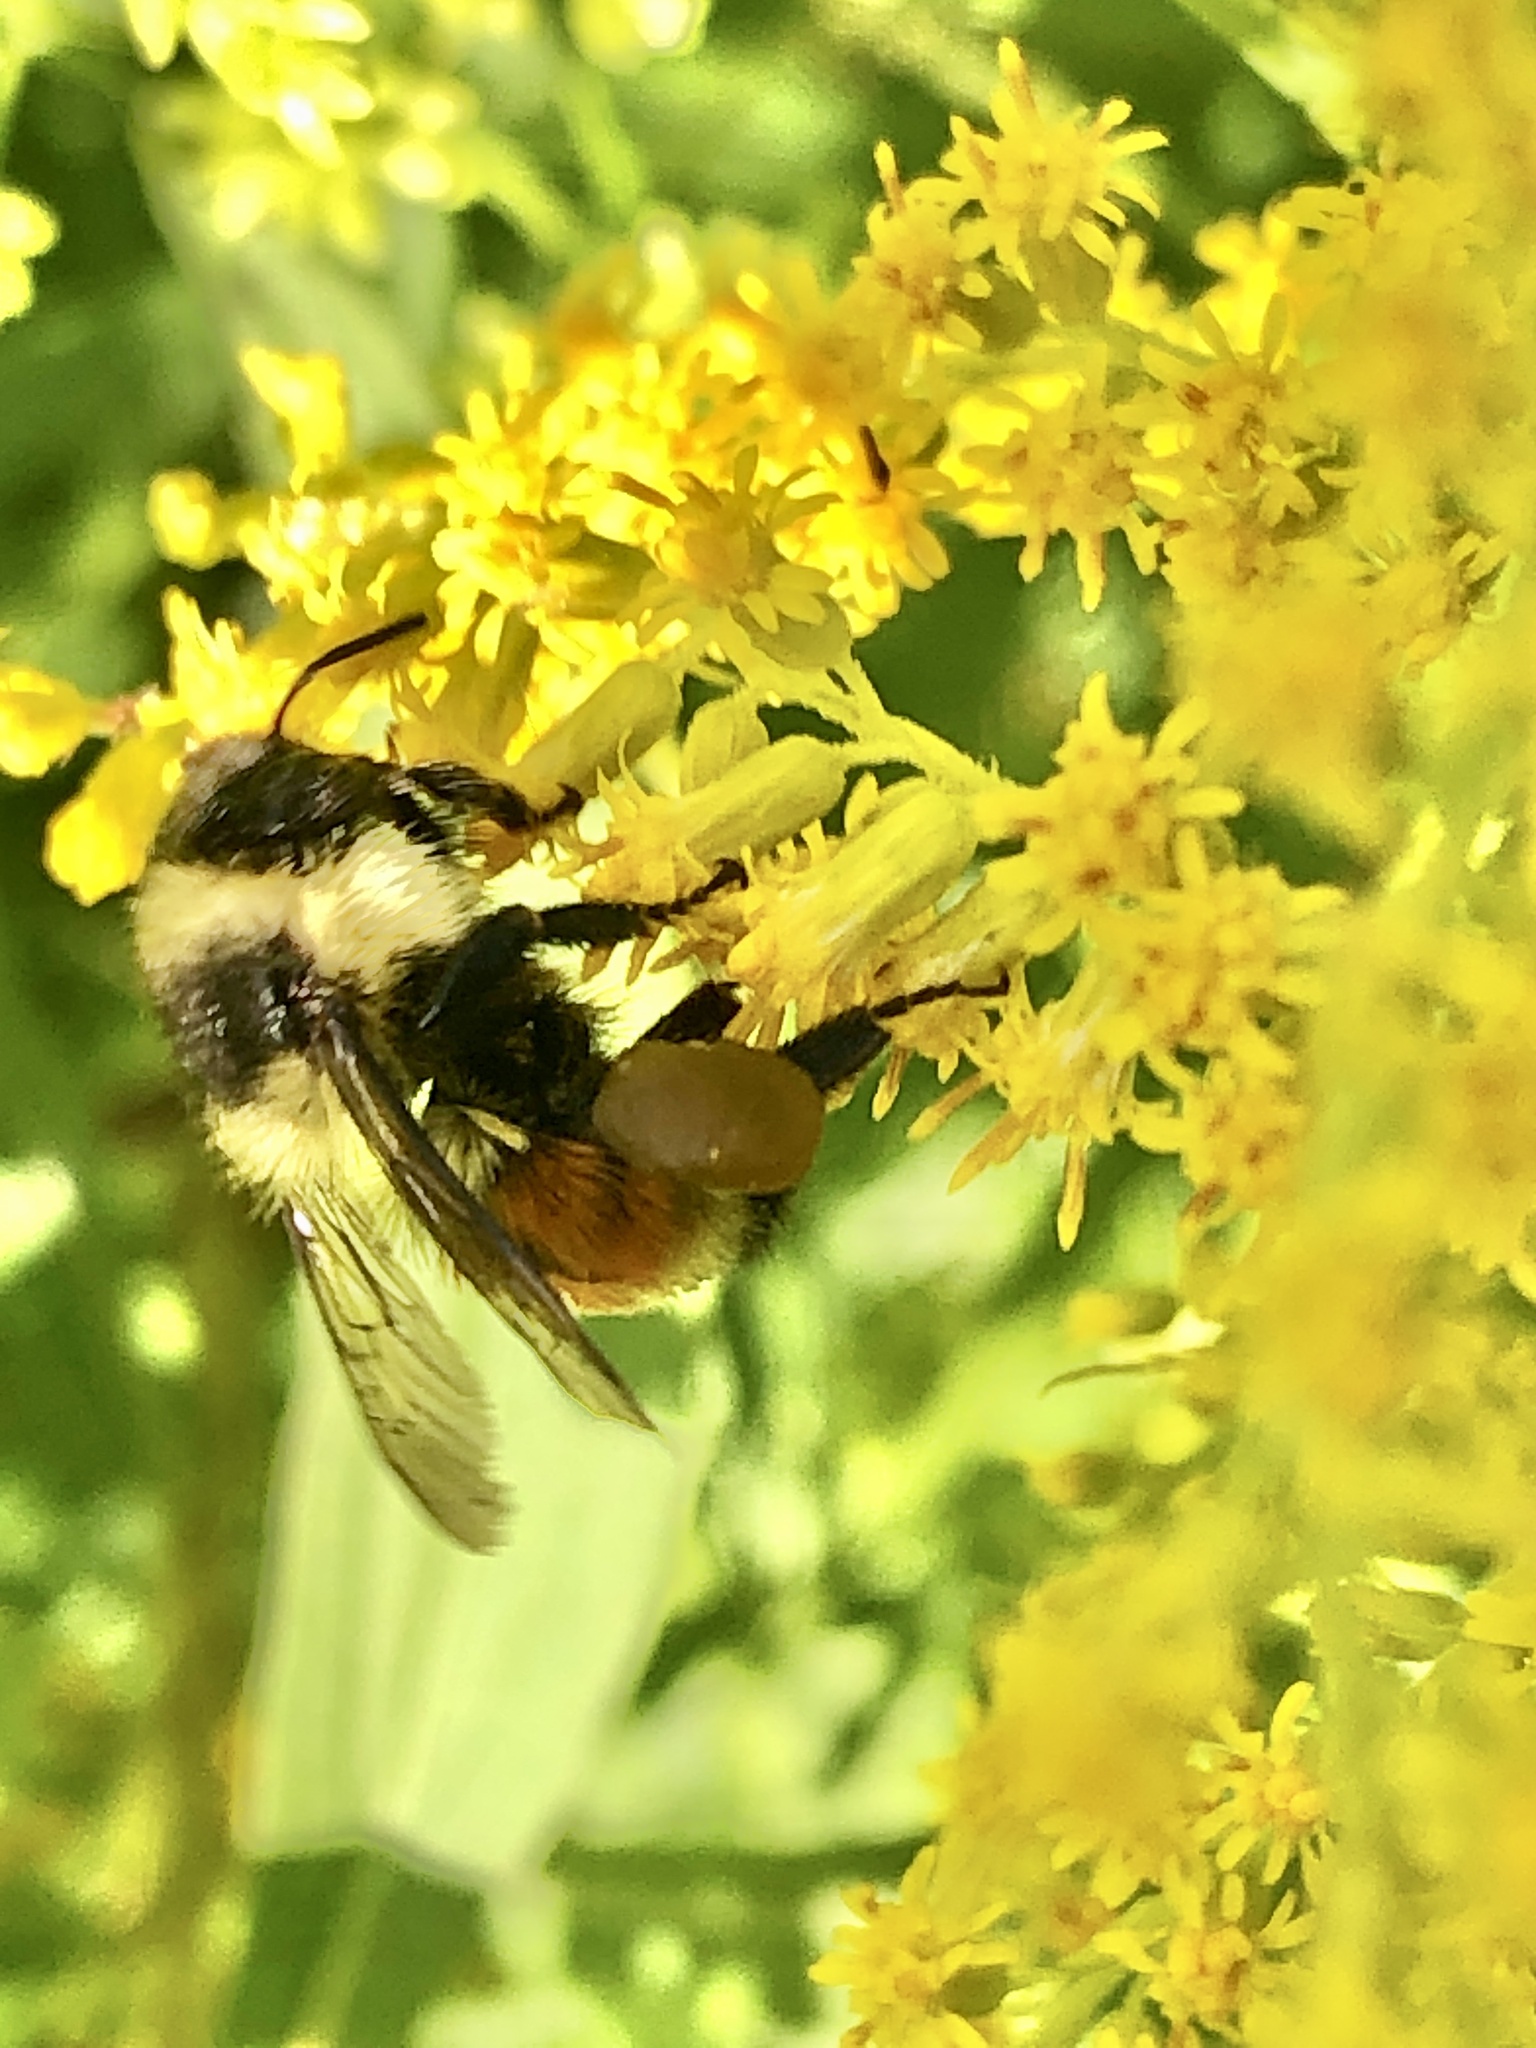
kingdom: Animalia
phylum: Arthropoda
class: Insecta
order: Hymenoptera
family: Apidae
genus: Bombus
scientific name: Bombus ternarius
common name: Tri-colored bumble bee
